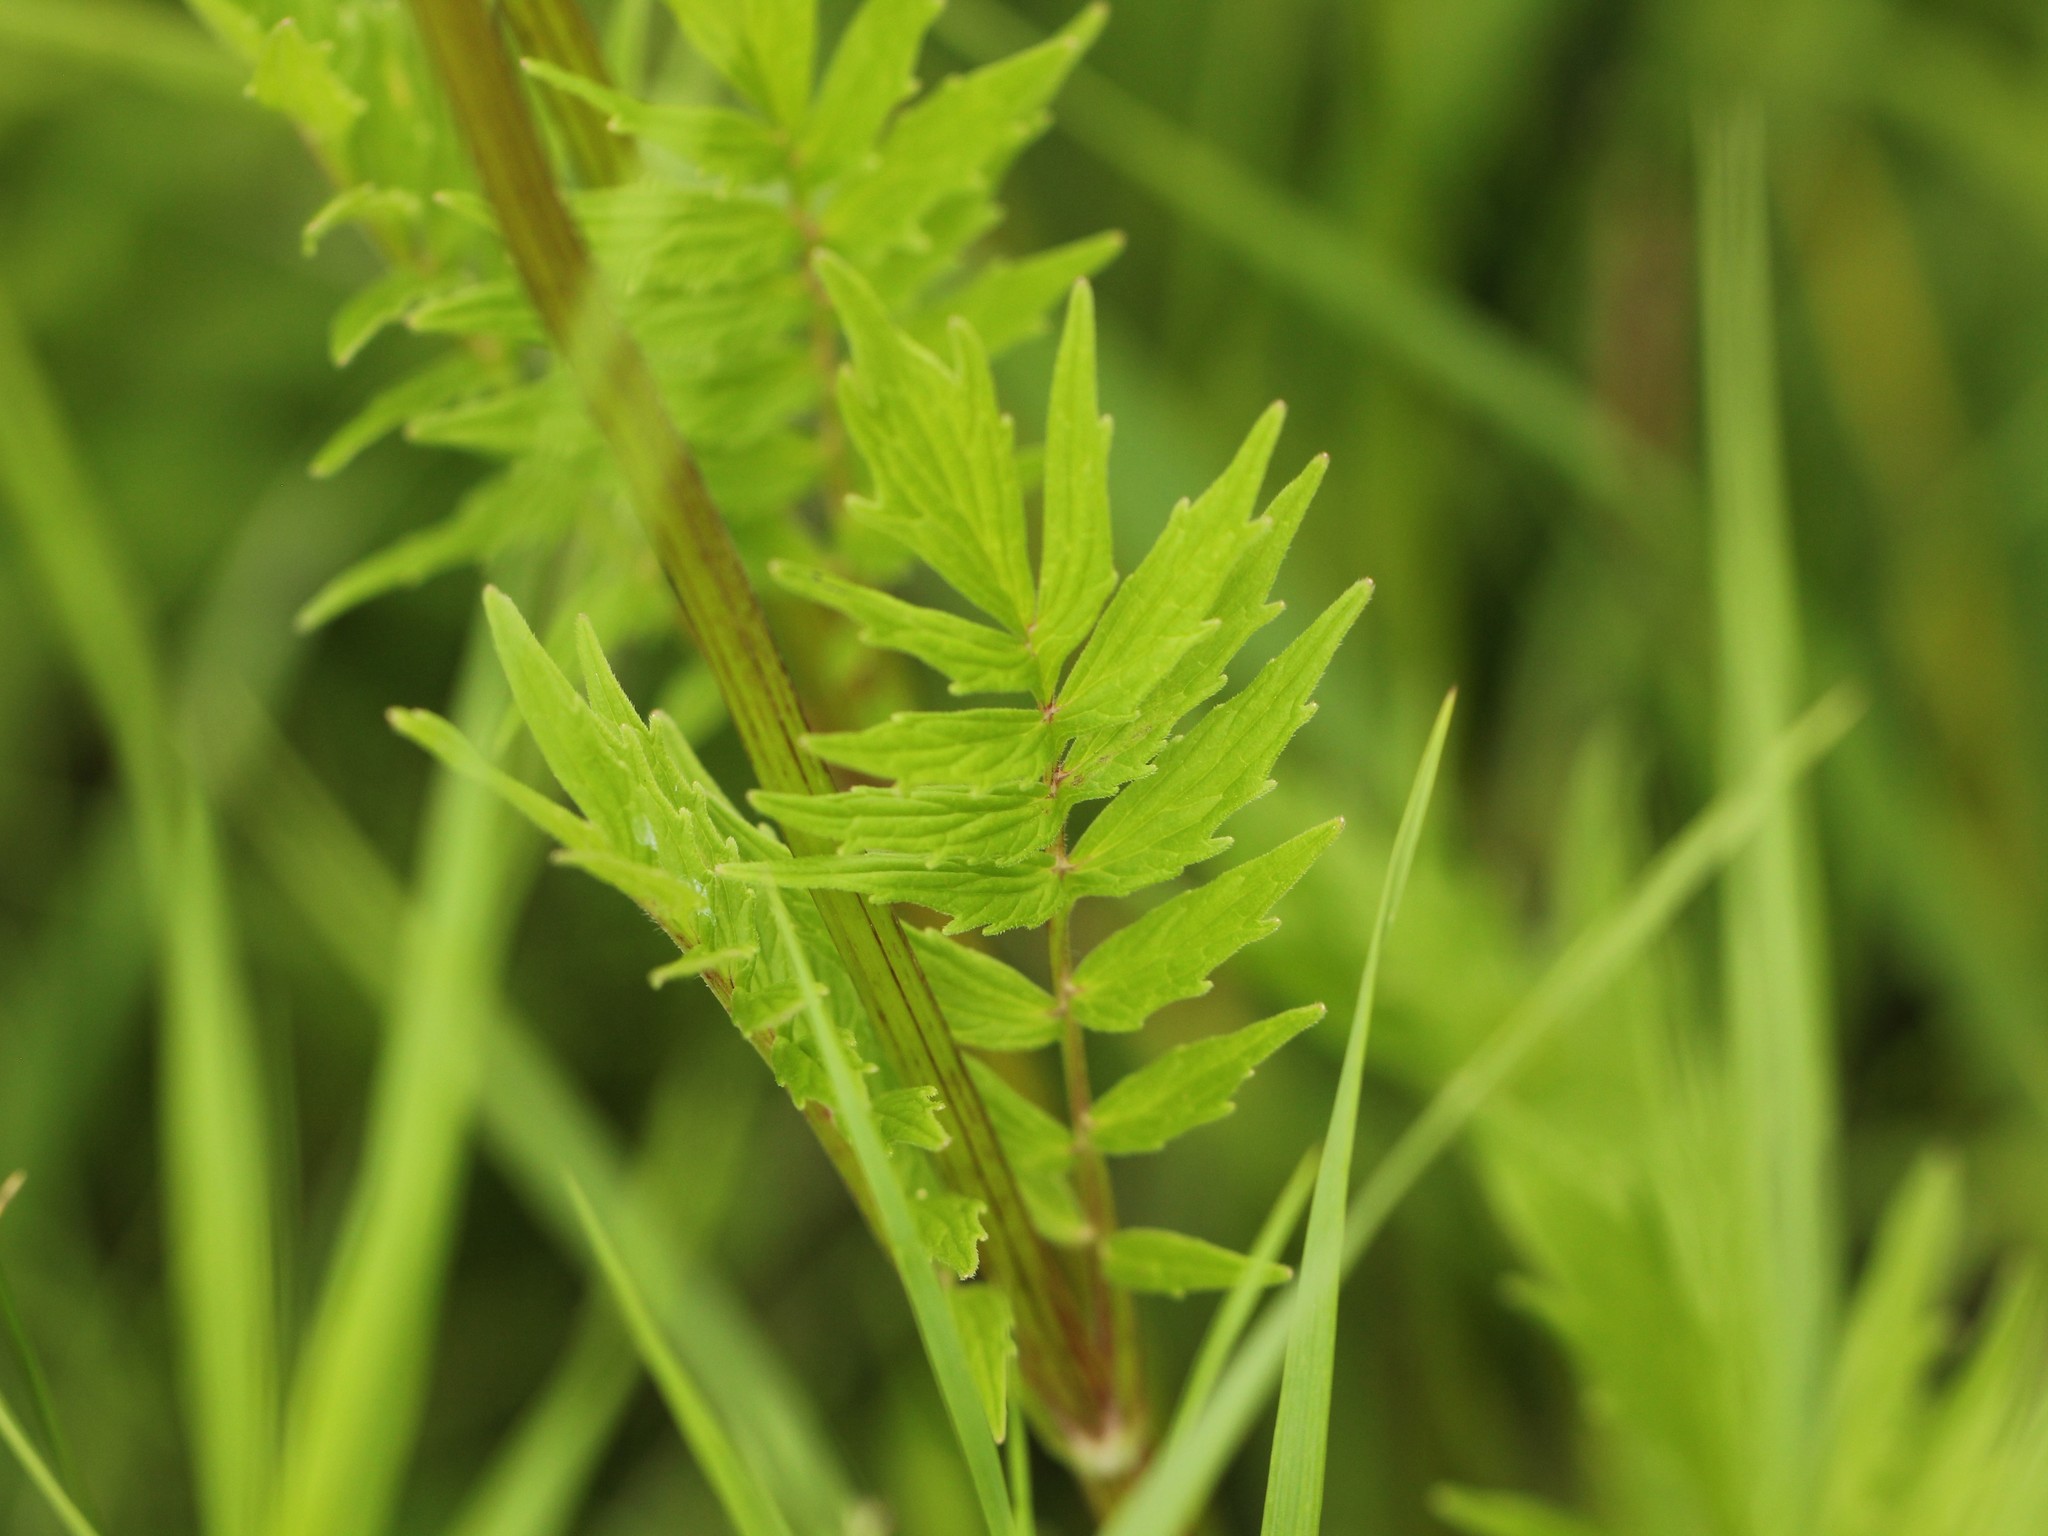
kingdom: Plantae
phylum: Tracheophyta
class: Magnoliopsida
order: Dipsacales
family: Caprifoliaceae
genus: Valeriana
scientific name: Valeriana officinalis
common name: Common valerian
